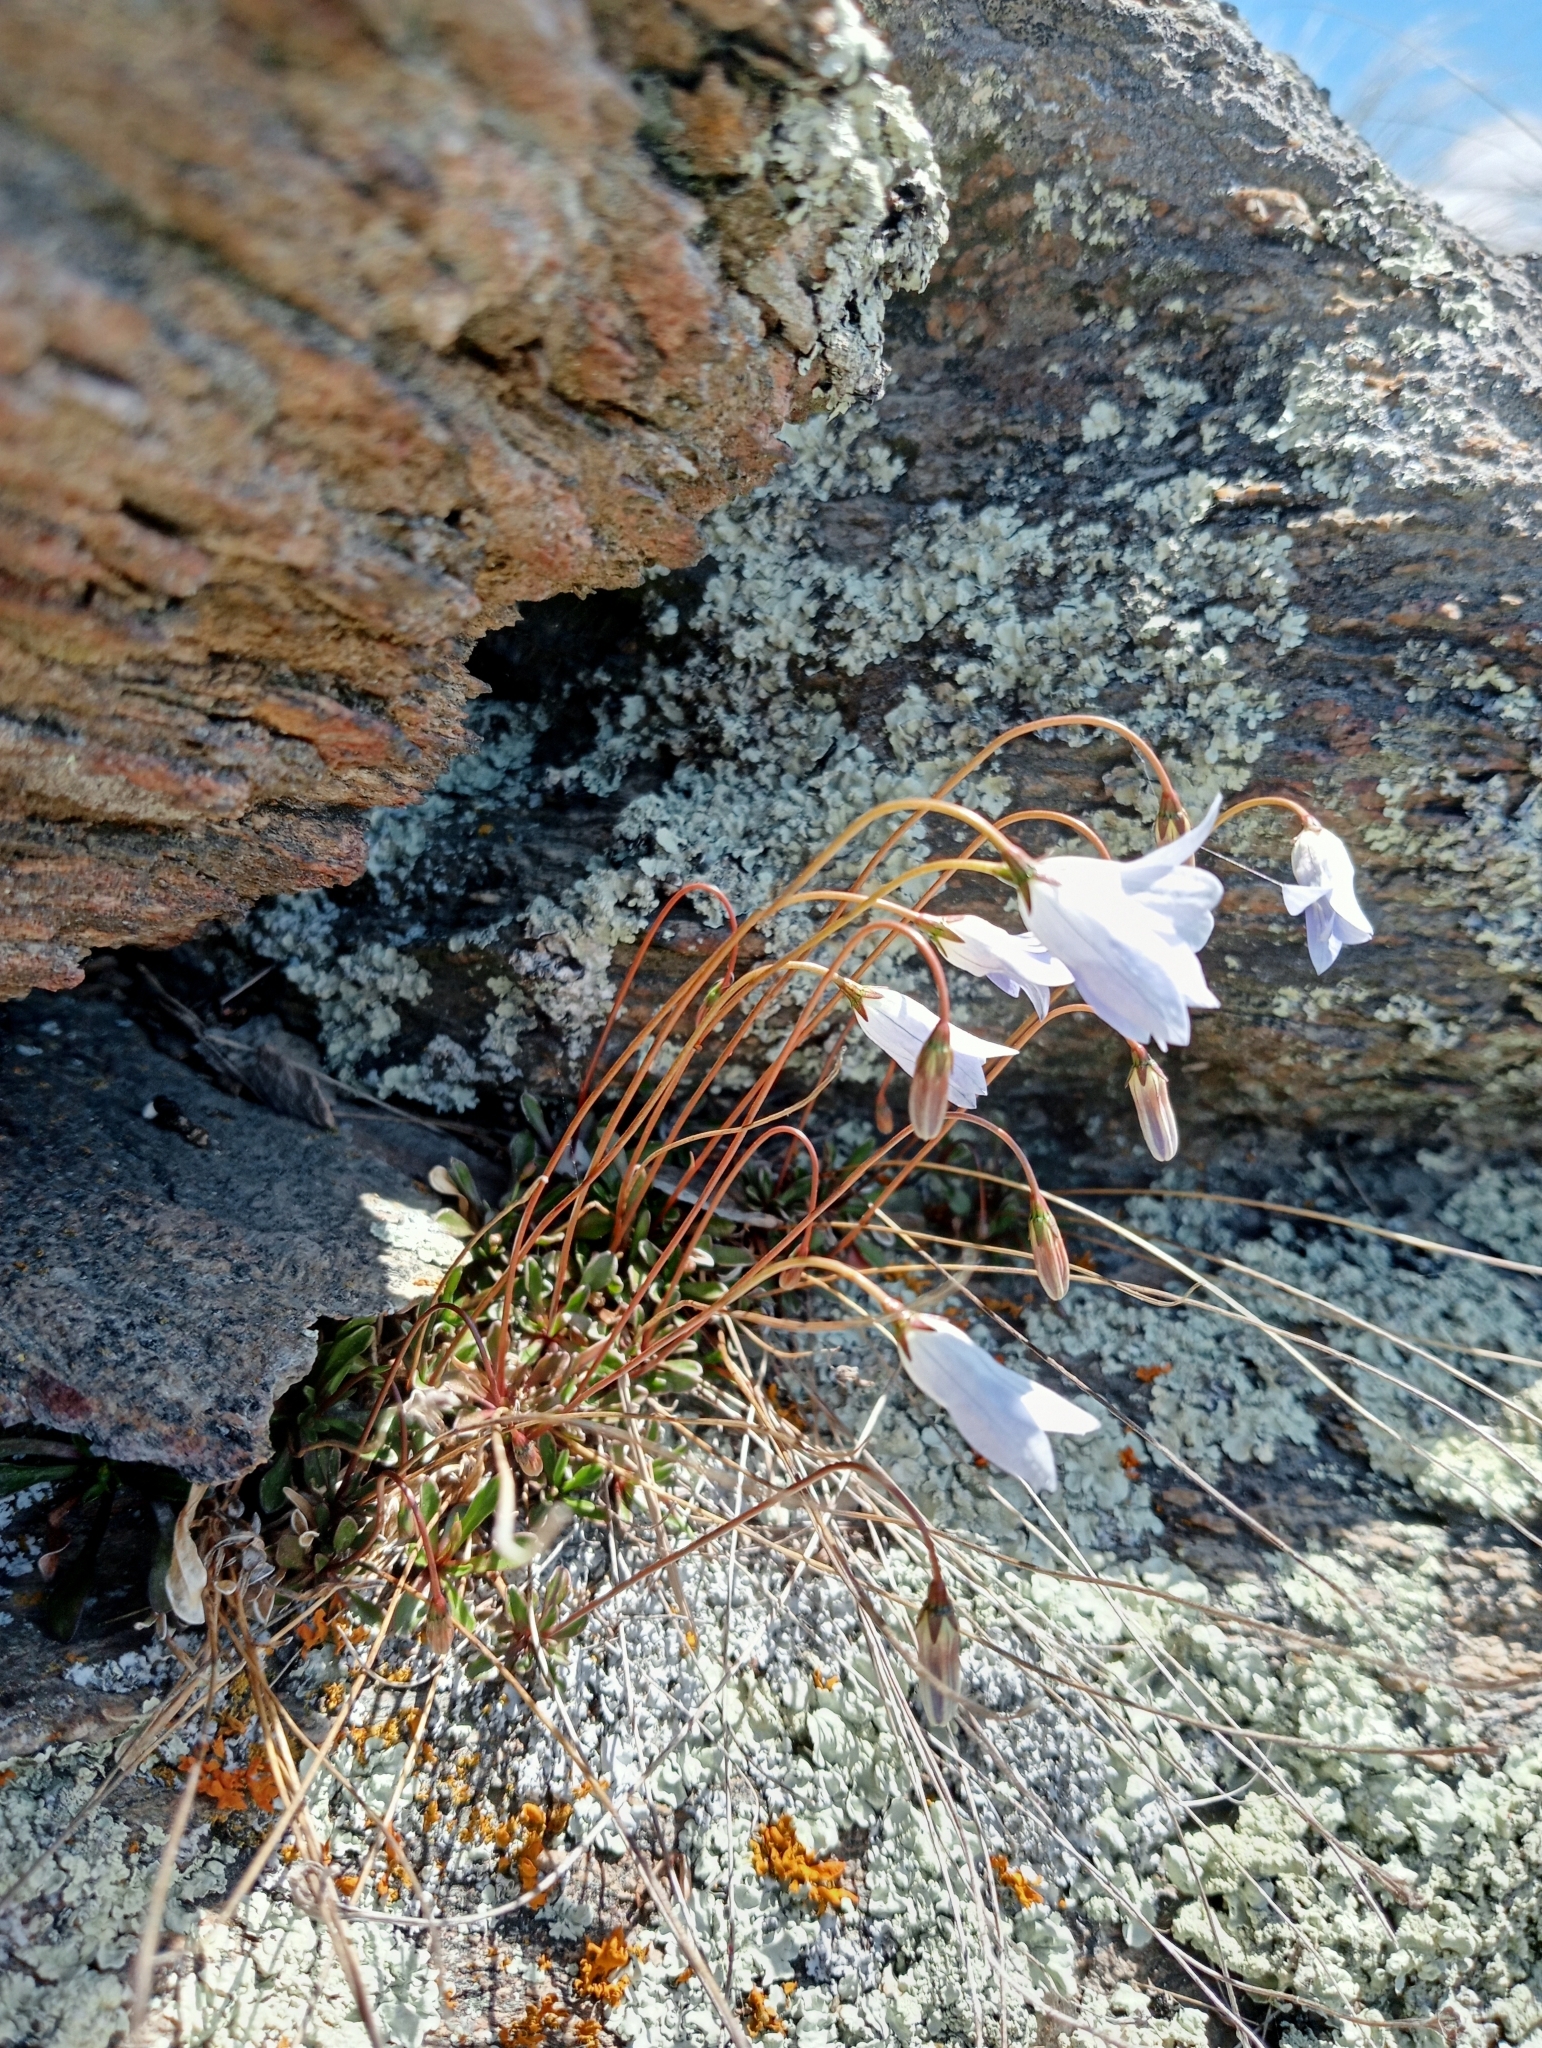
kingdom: Plantae
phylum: Tracheophyta
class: Magnoliopsida
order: Asterales
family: Campanulaceae
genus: Wahlenbergia
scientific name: Wahlenbergia albomarginata
